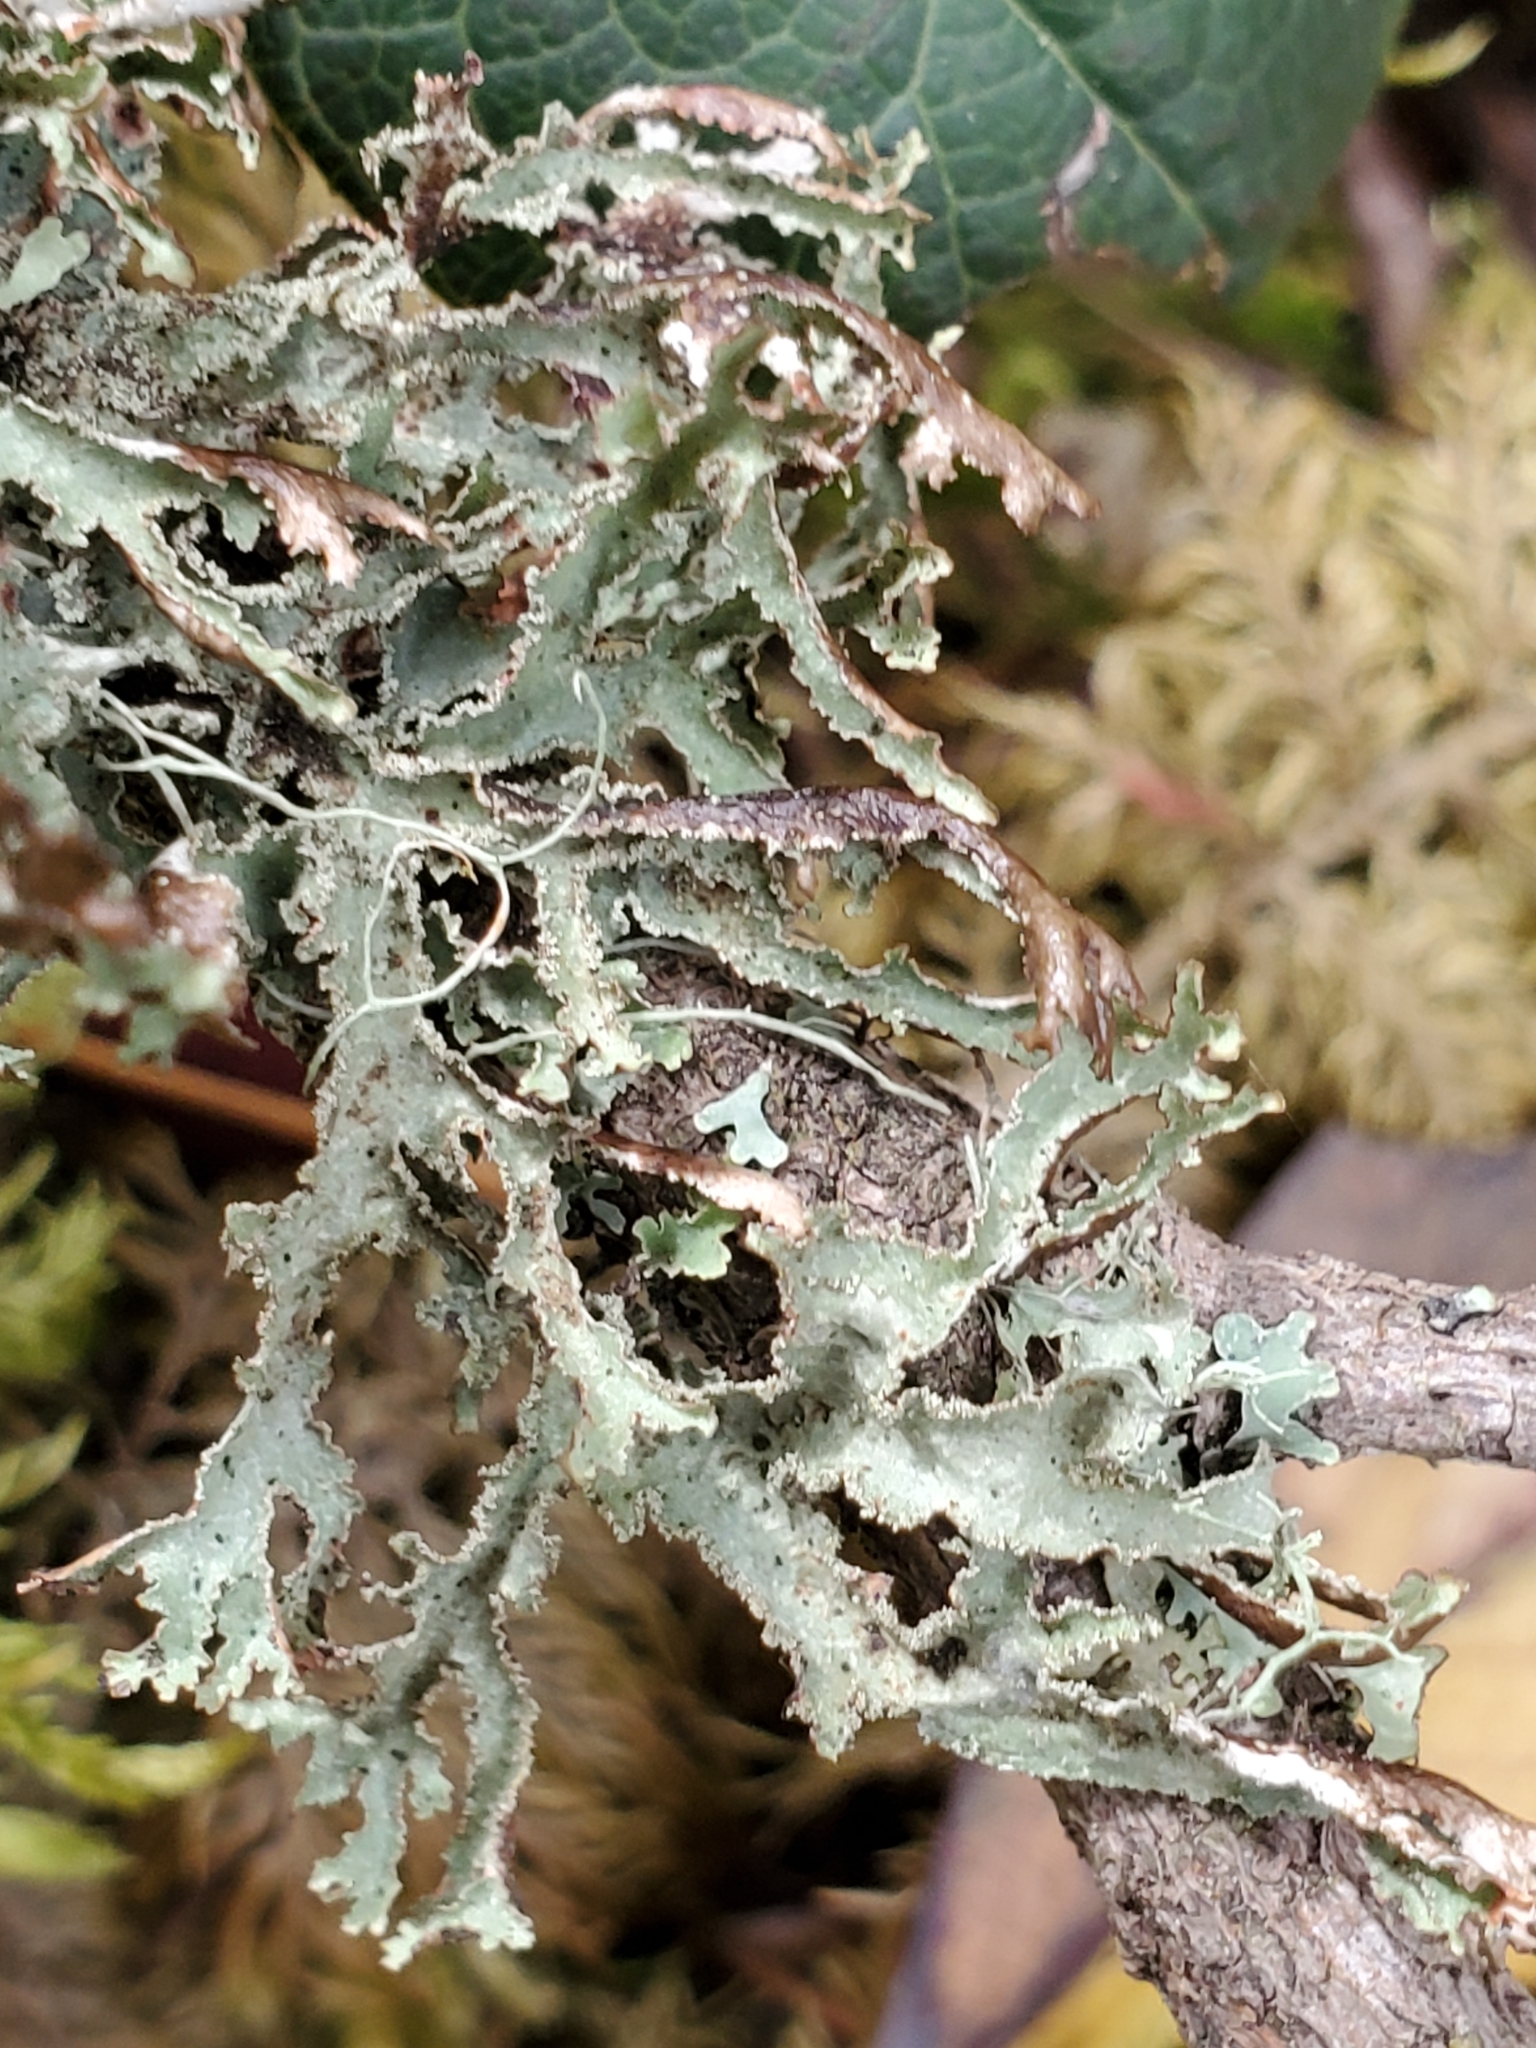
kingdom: Fungi
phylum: Ascomycota
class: Lecanoromycetes
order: Lecanorales
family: Parmeliaceae
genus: Platismatia
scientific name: Platismatia herrei
